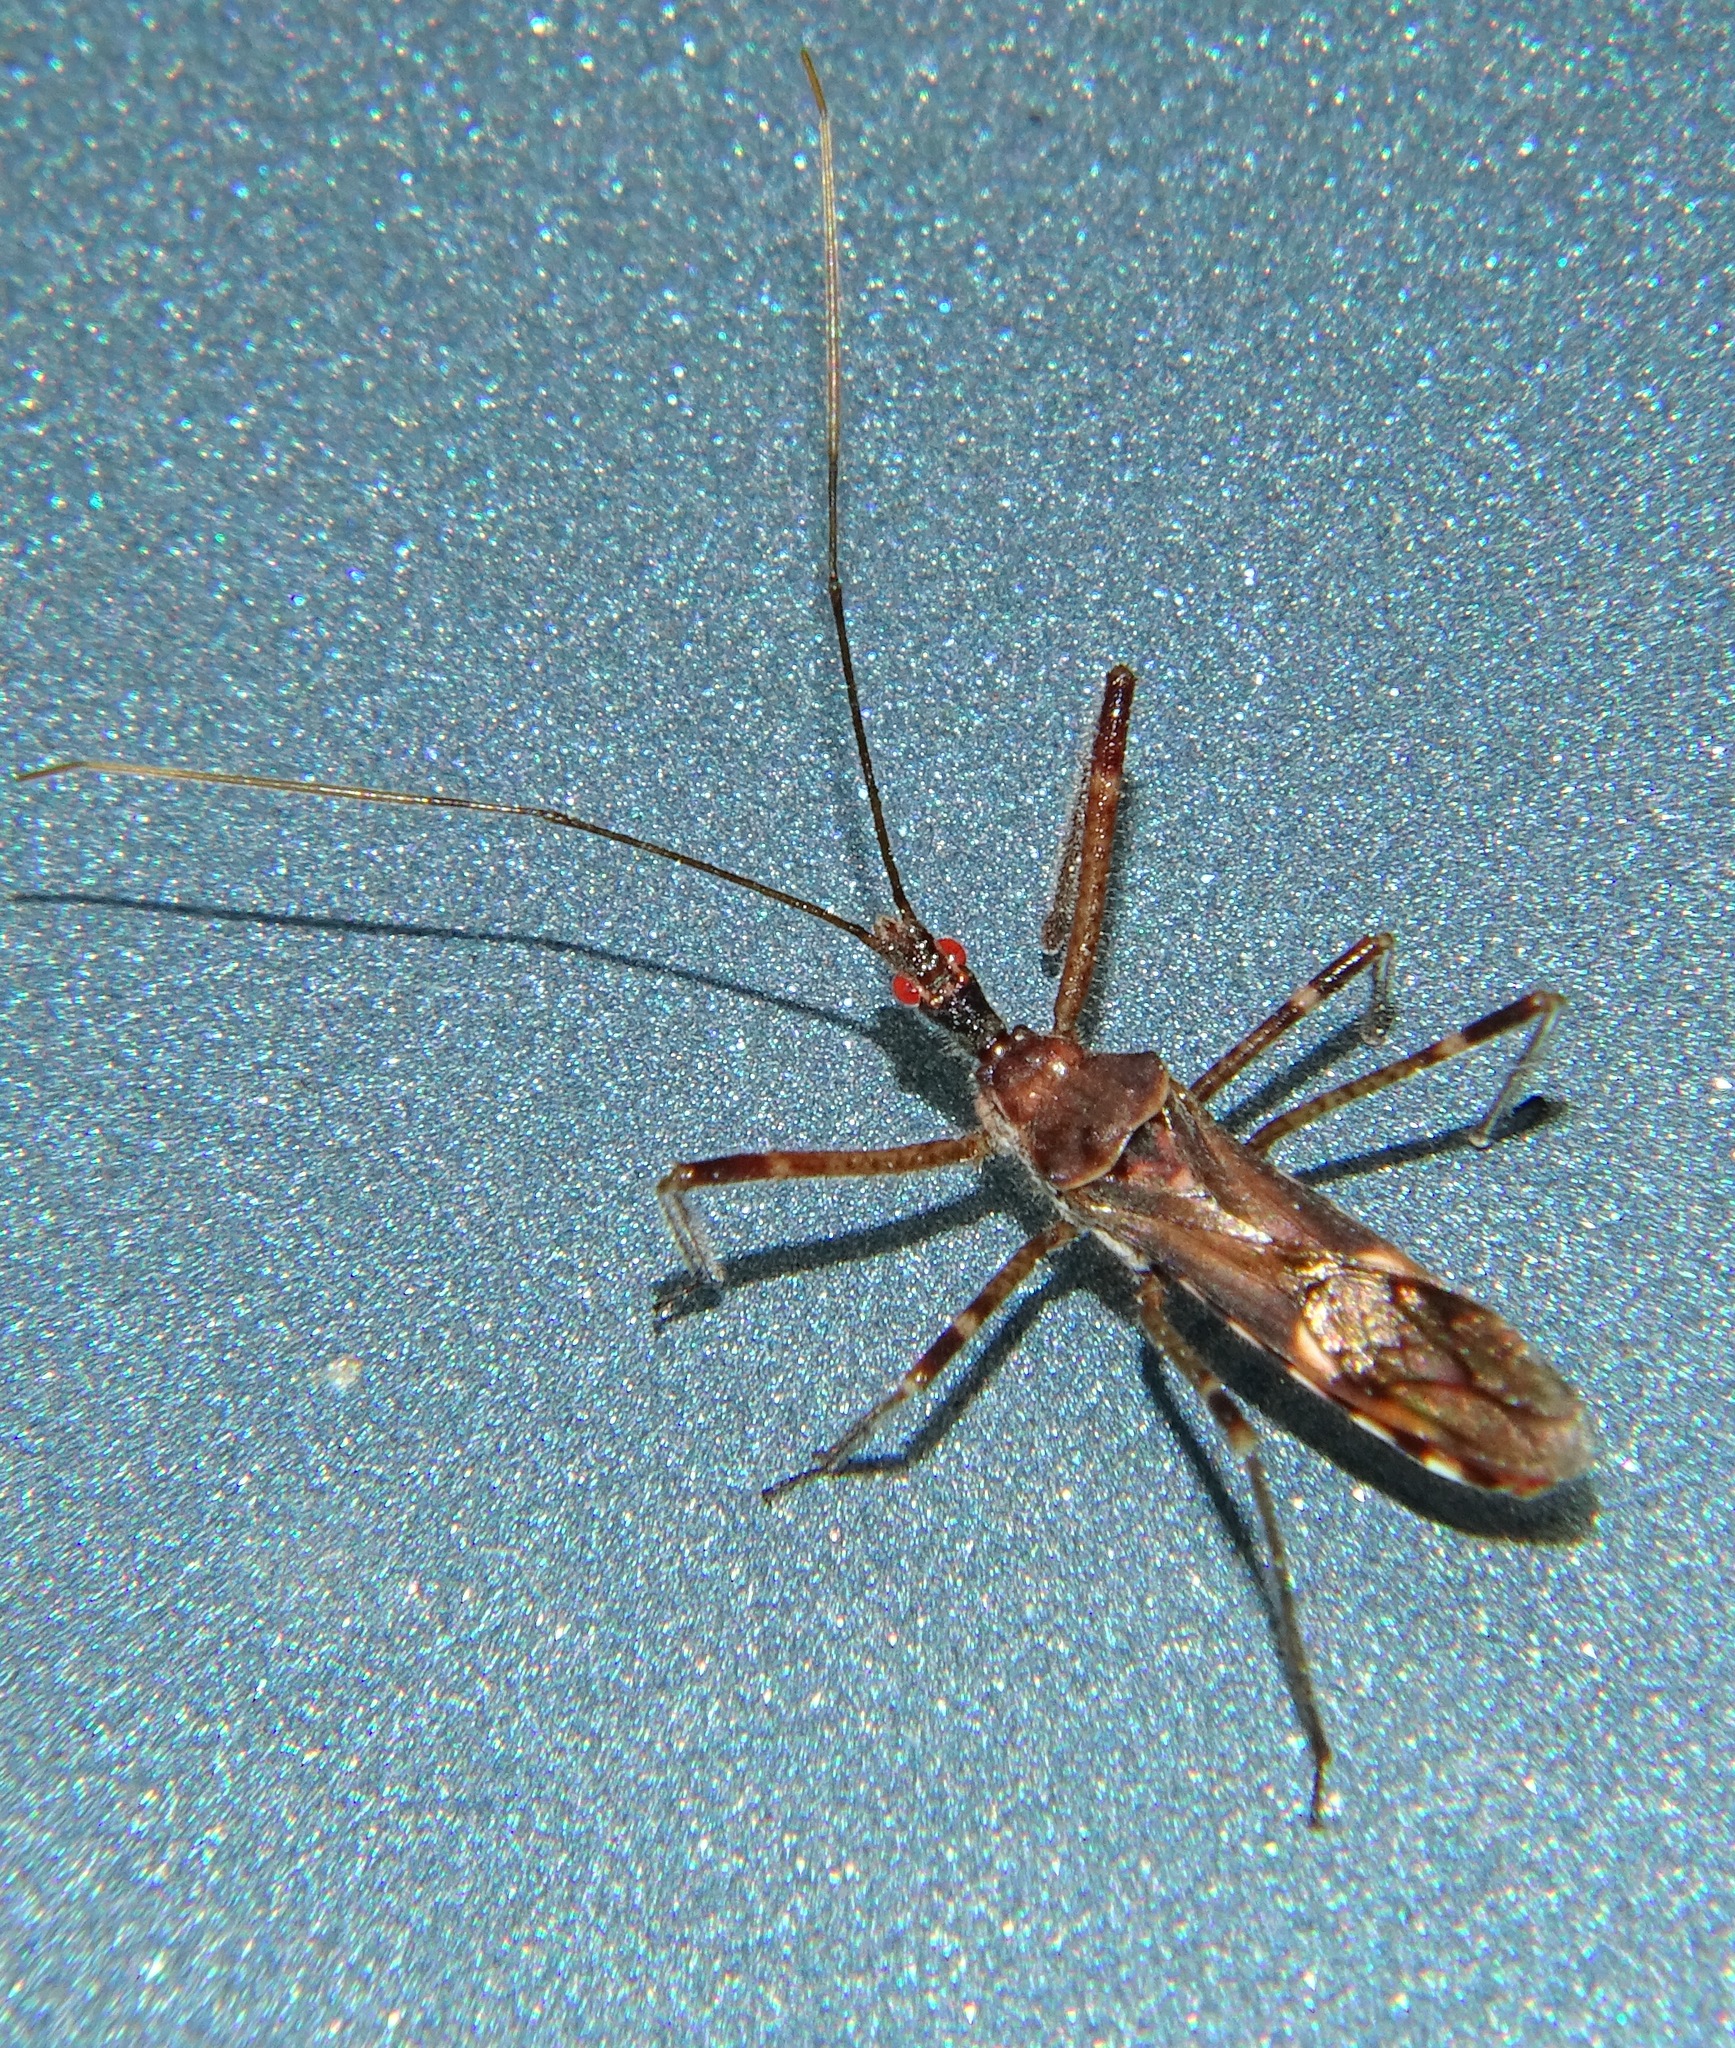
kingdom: Animalia
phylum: Arthropoda
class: Insecta
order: Hemiptera
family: Reduviidae
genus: Zelus
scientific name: Zelus tetracanthus
